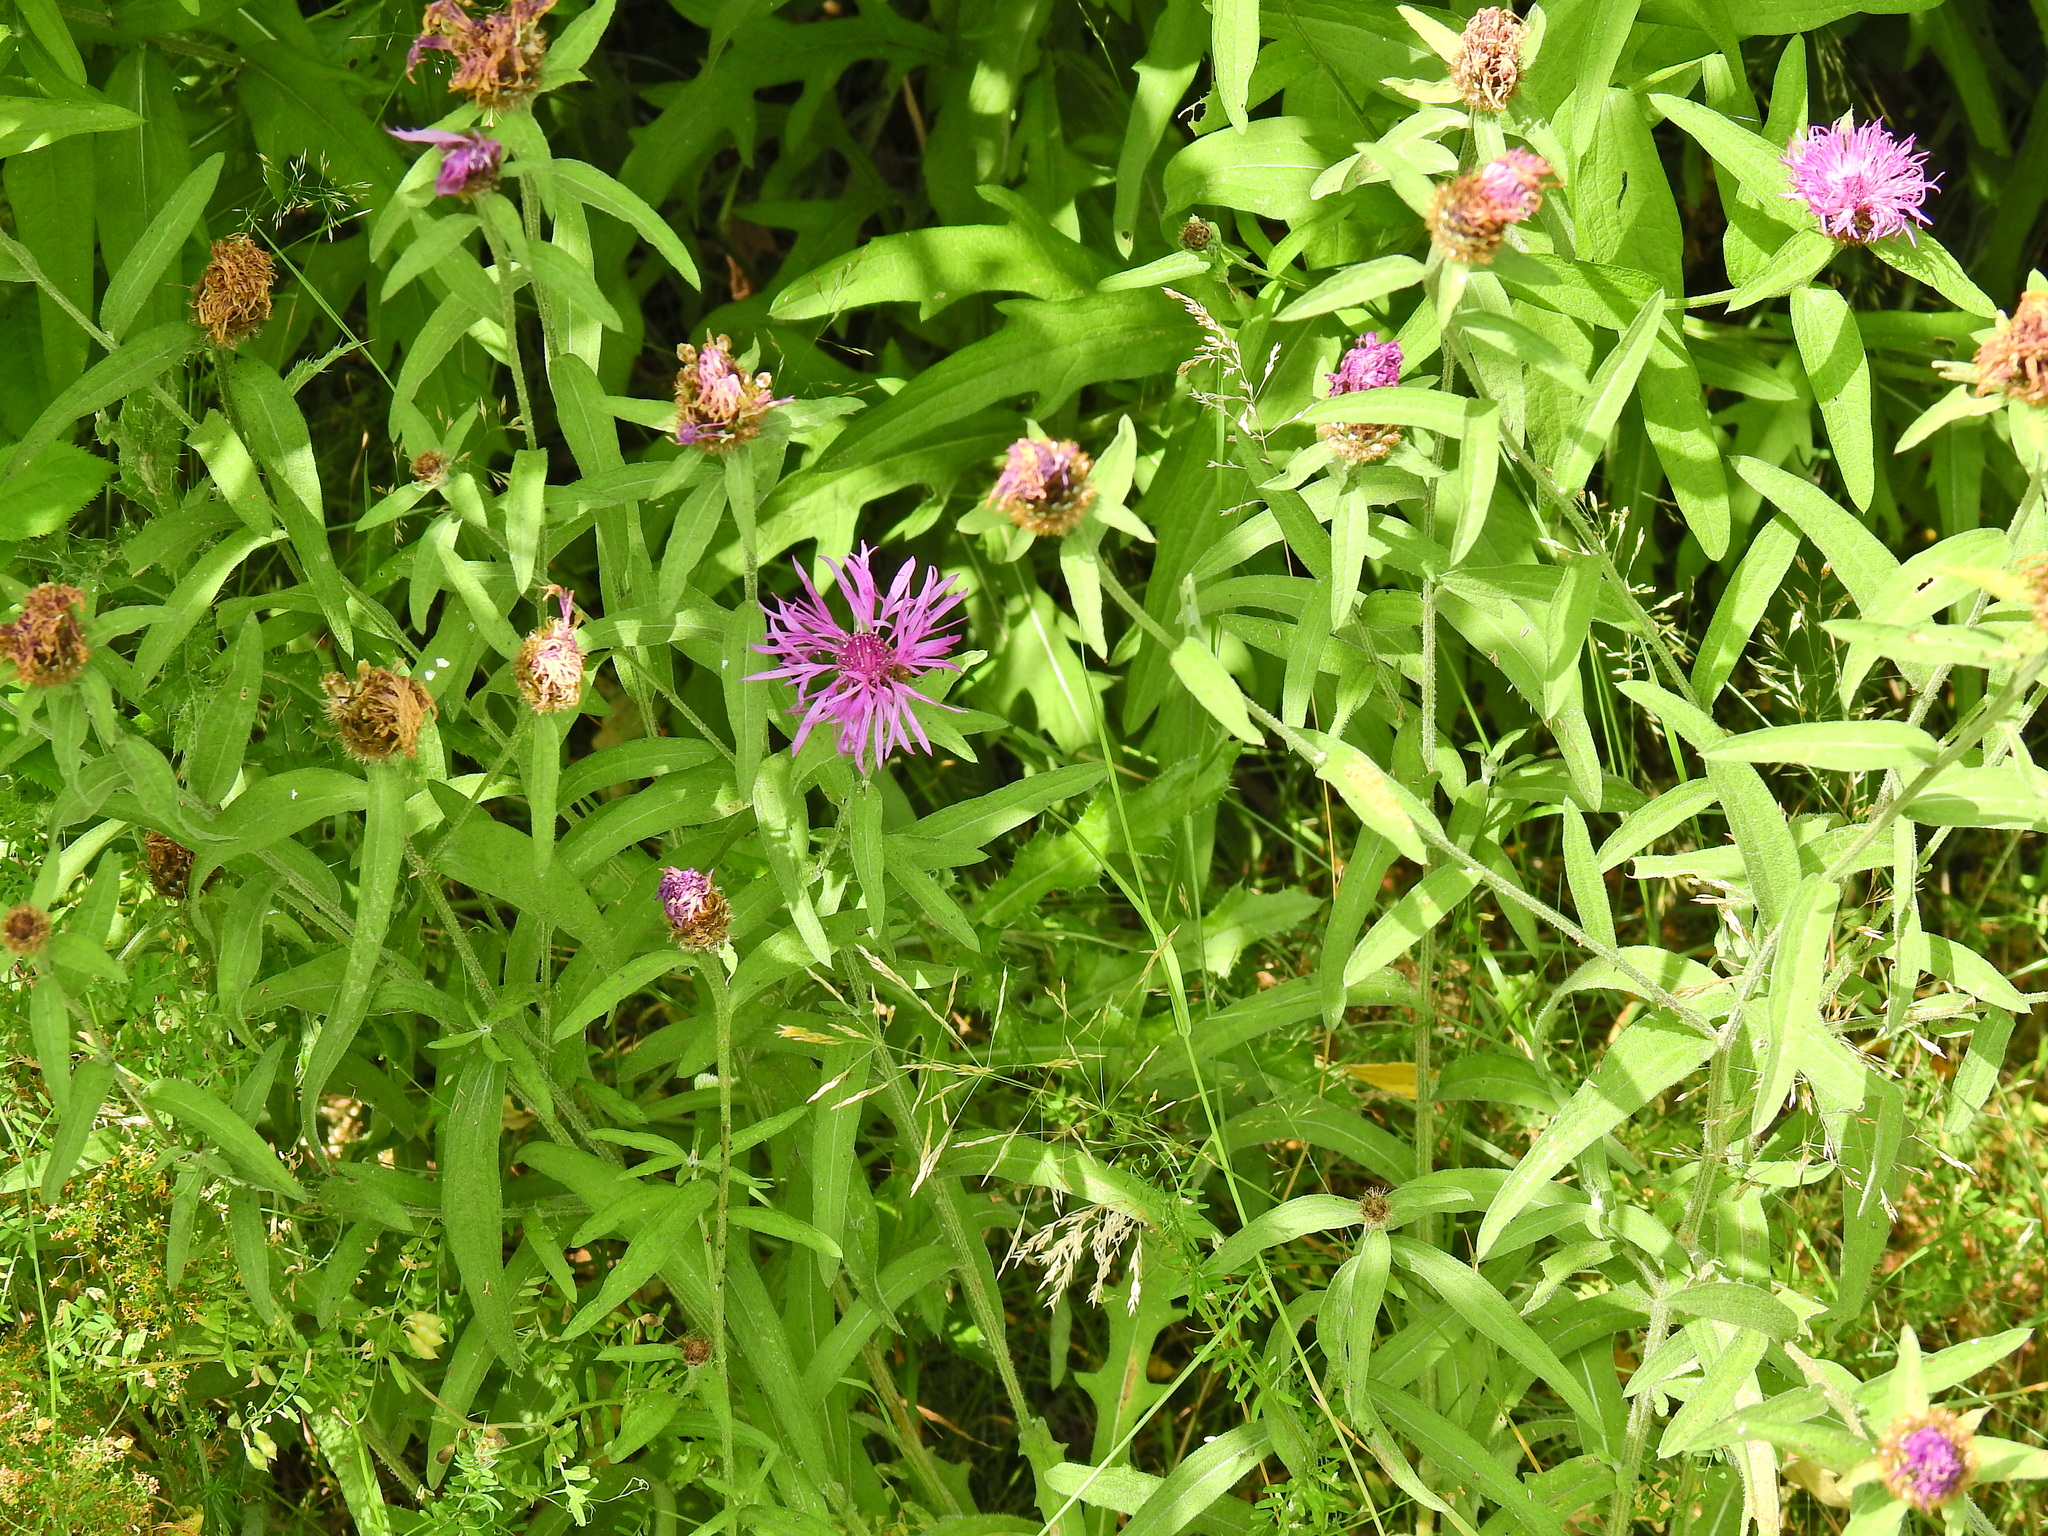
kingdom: Plantae
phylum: Tracheophyta
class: Magnoliopsida
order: Asterales
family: Asteraceae
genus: Centaurea
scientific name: Centaurea nigra
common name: Lesser knapweed
